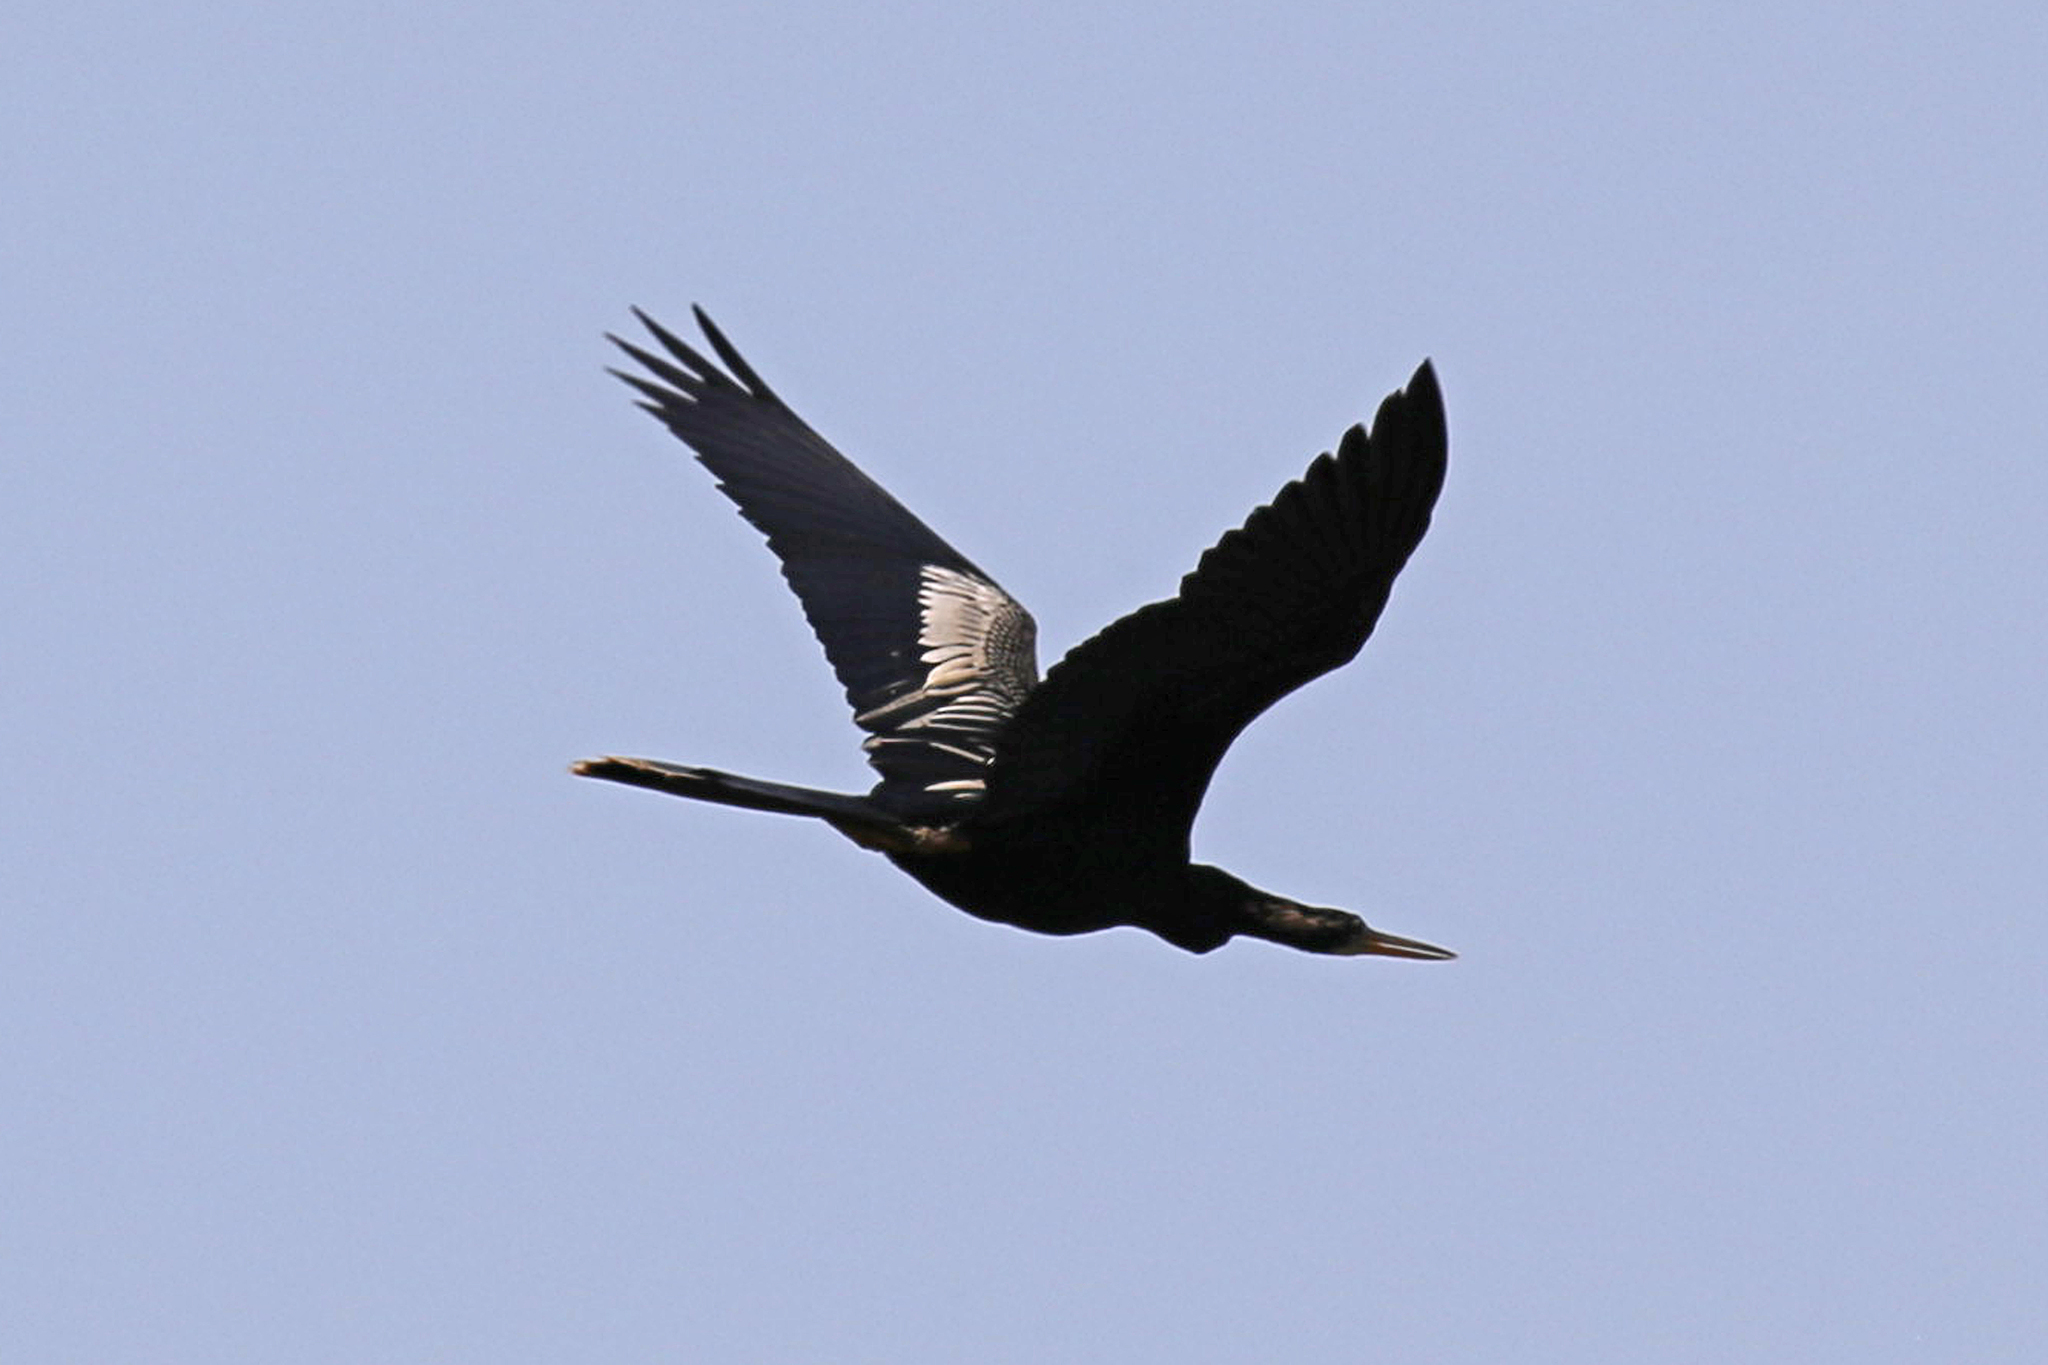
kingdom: Animalia
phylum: Chordata
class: Aves
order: Suliformes
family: Anhingidae
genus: Anhinga
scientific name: Anhinga anhinga
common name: Anhinga
